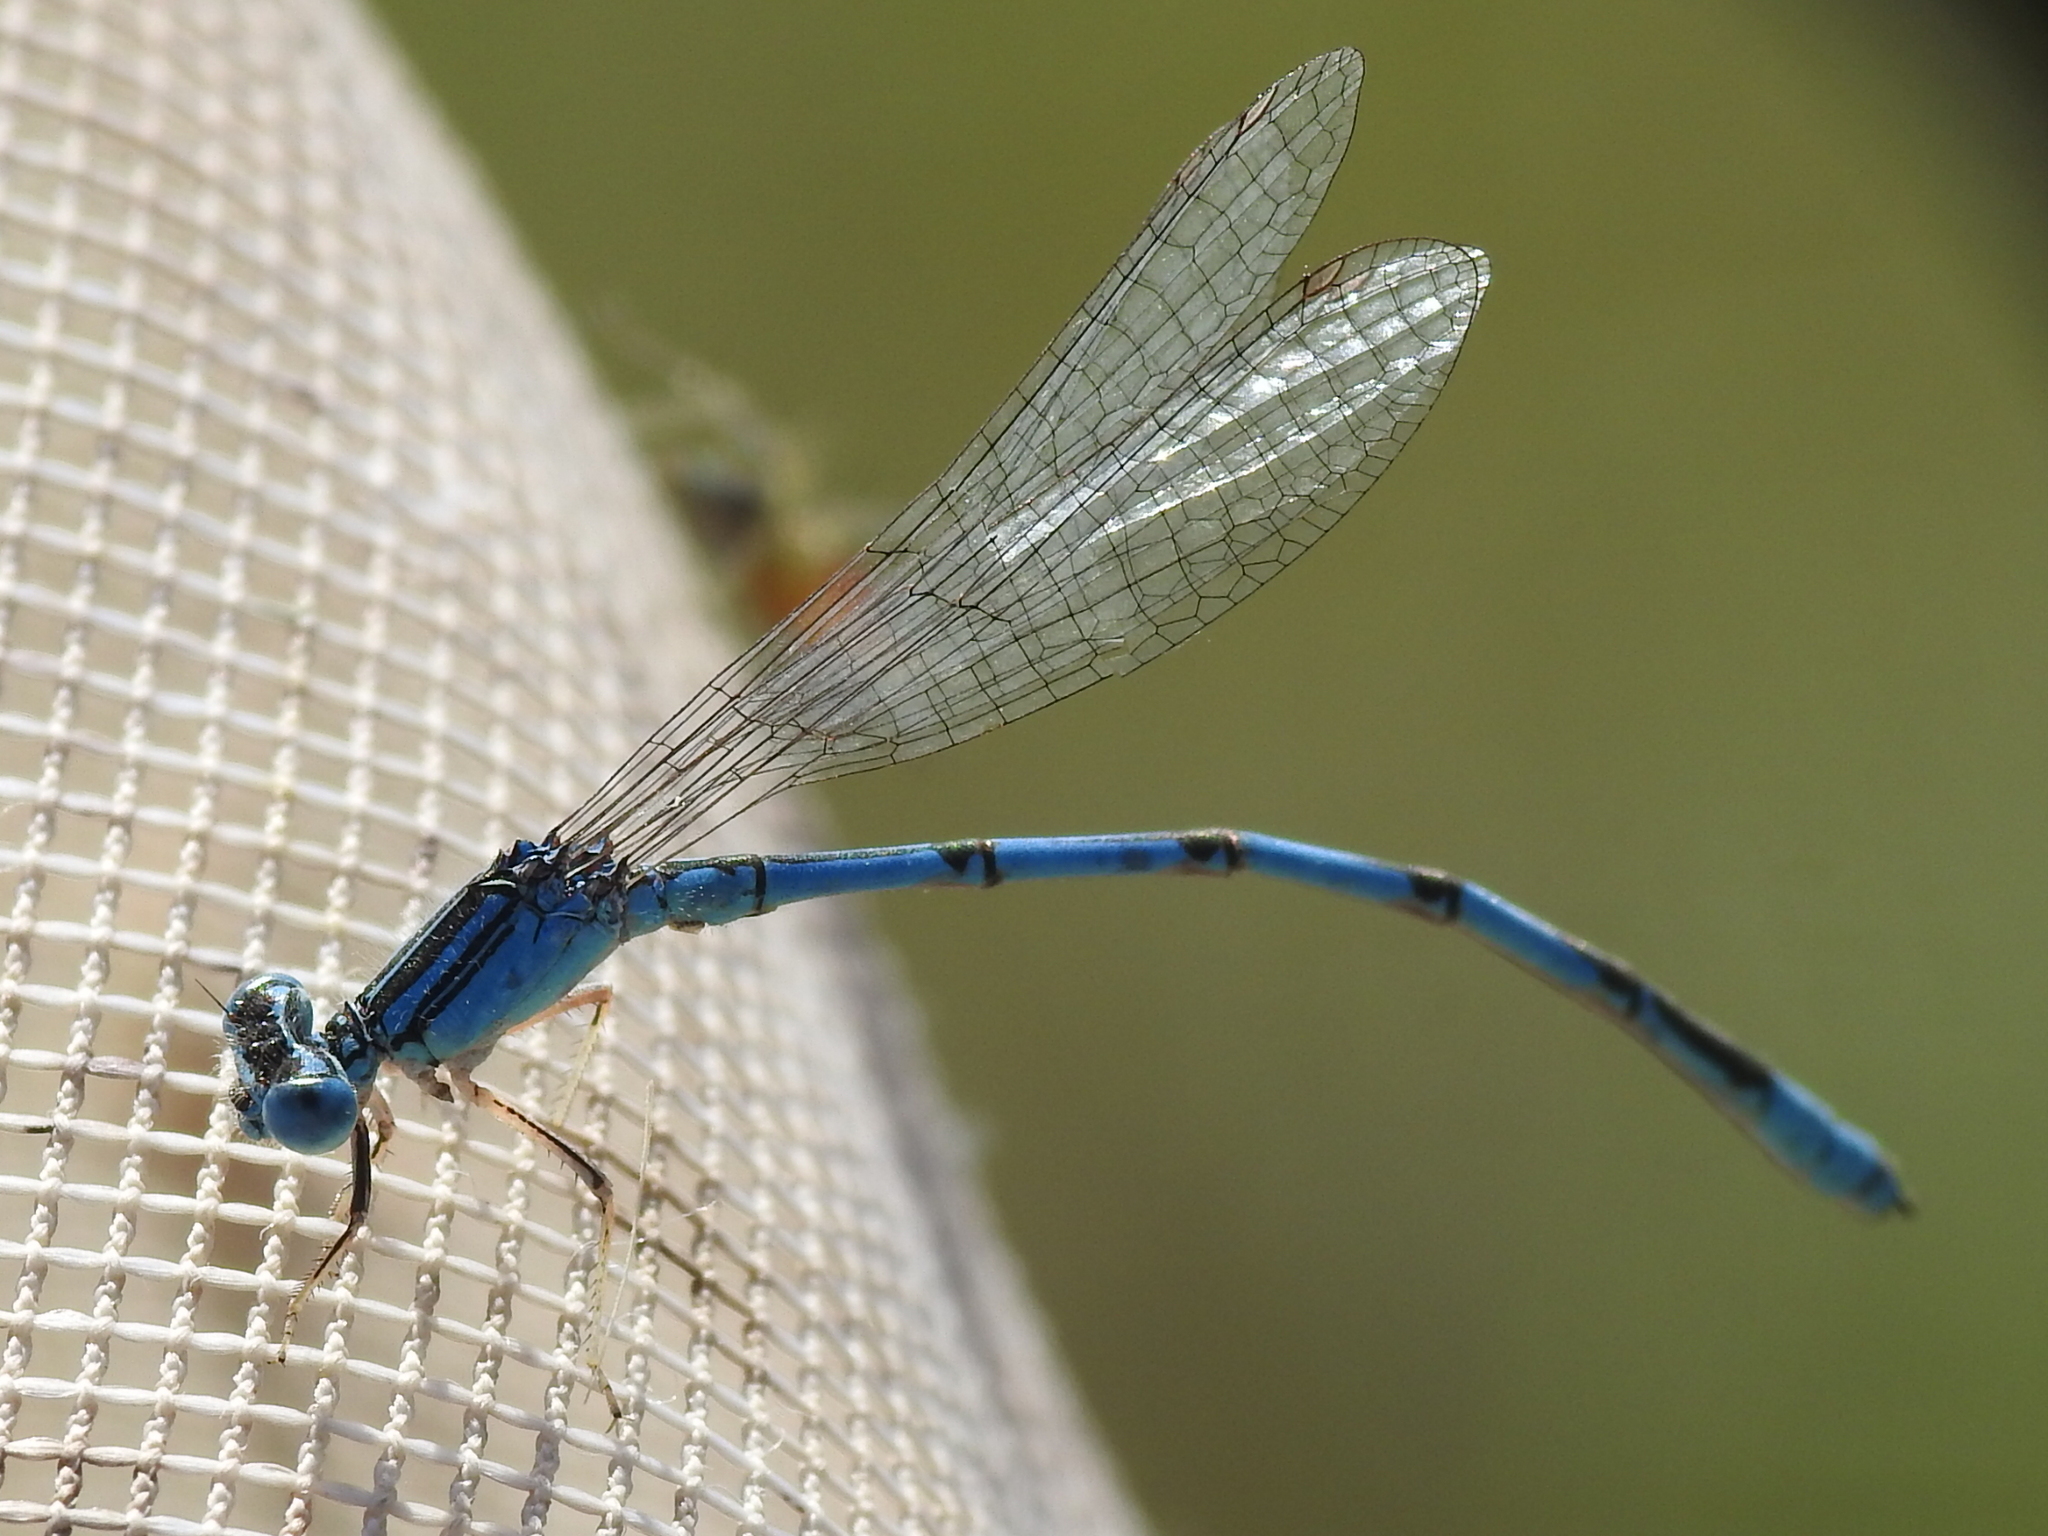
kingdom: Animalia
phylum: Arthropoda
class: Insecta
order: Odonata
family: Coenagrionidae
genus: Enallagma
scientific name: Enallagma basidens
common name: Double-striped bluet
